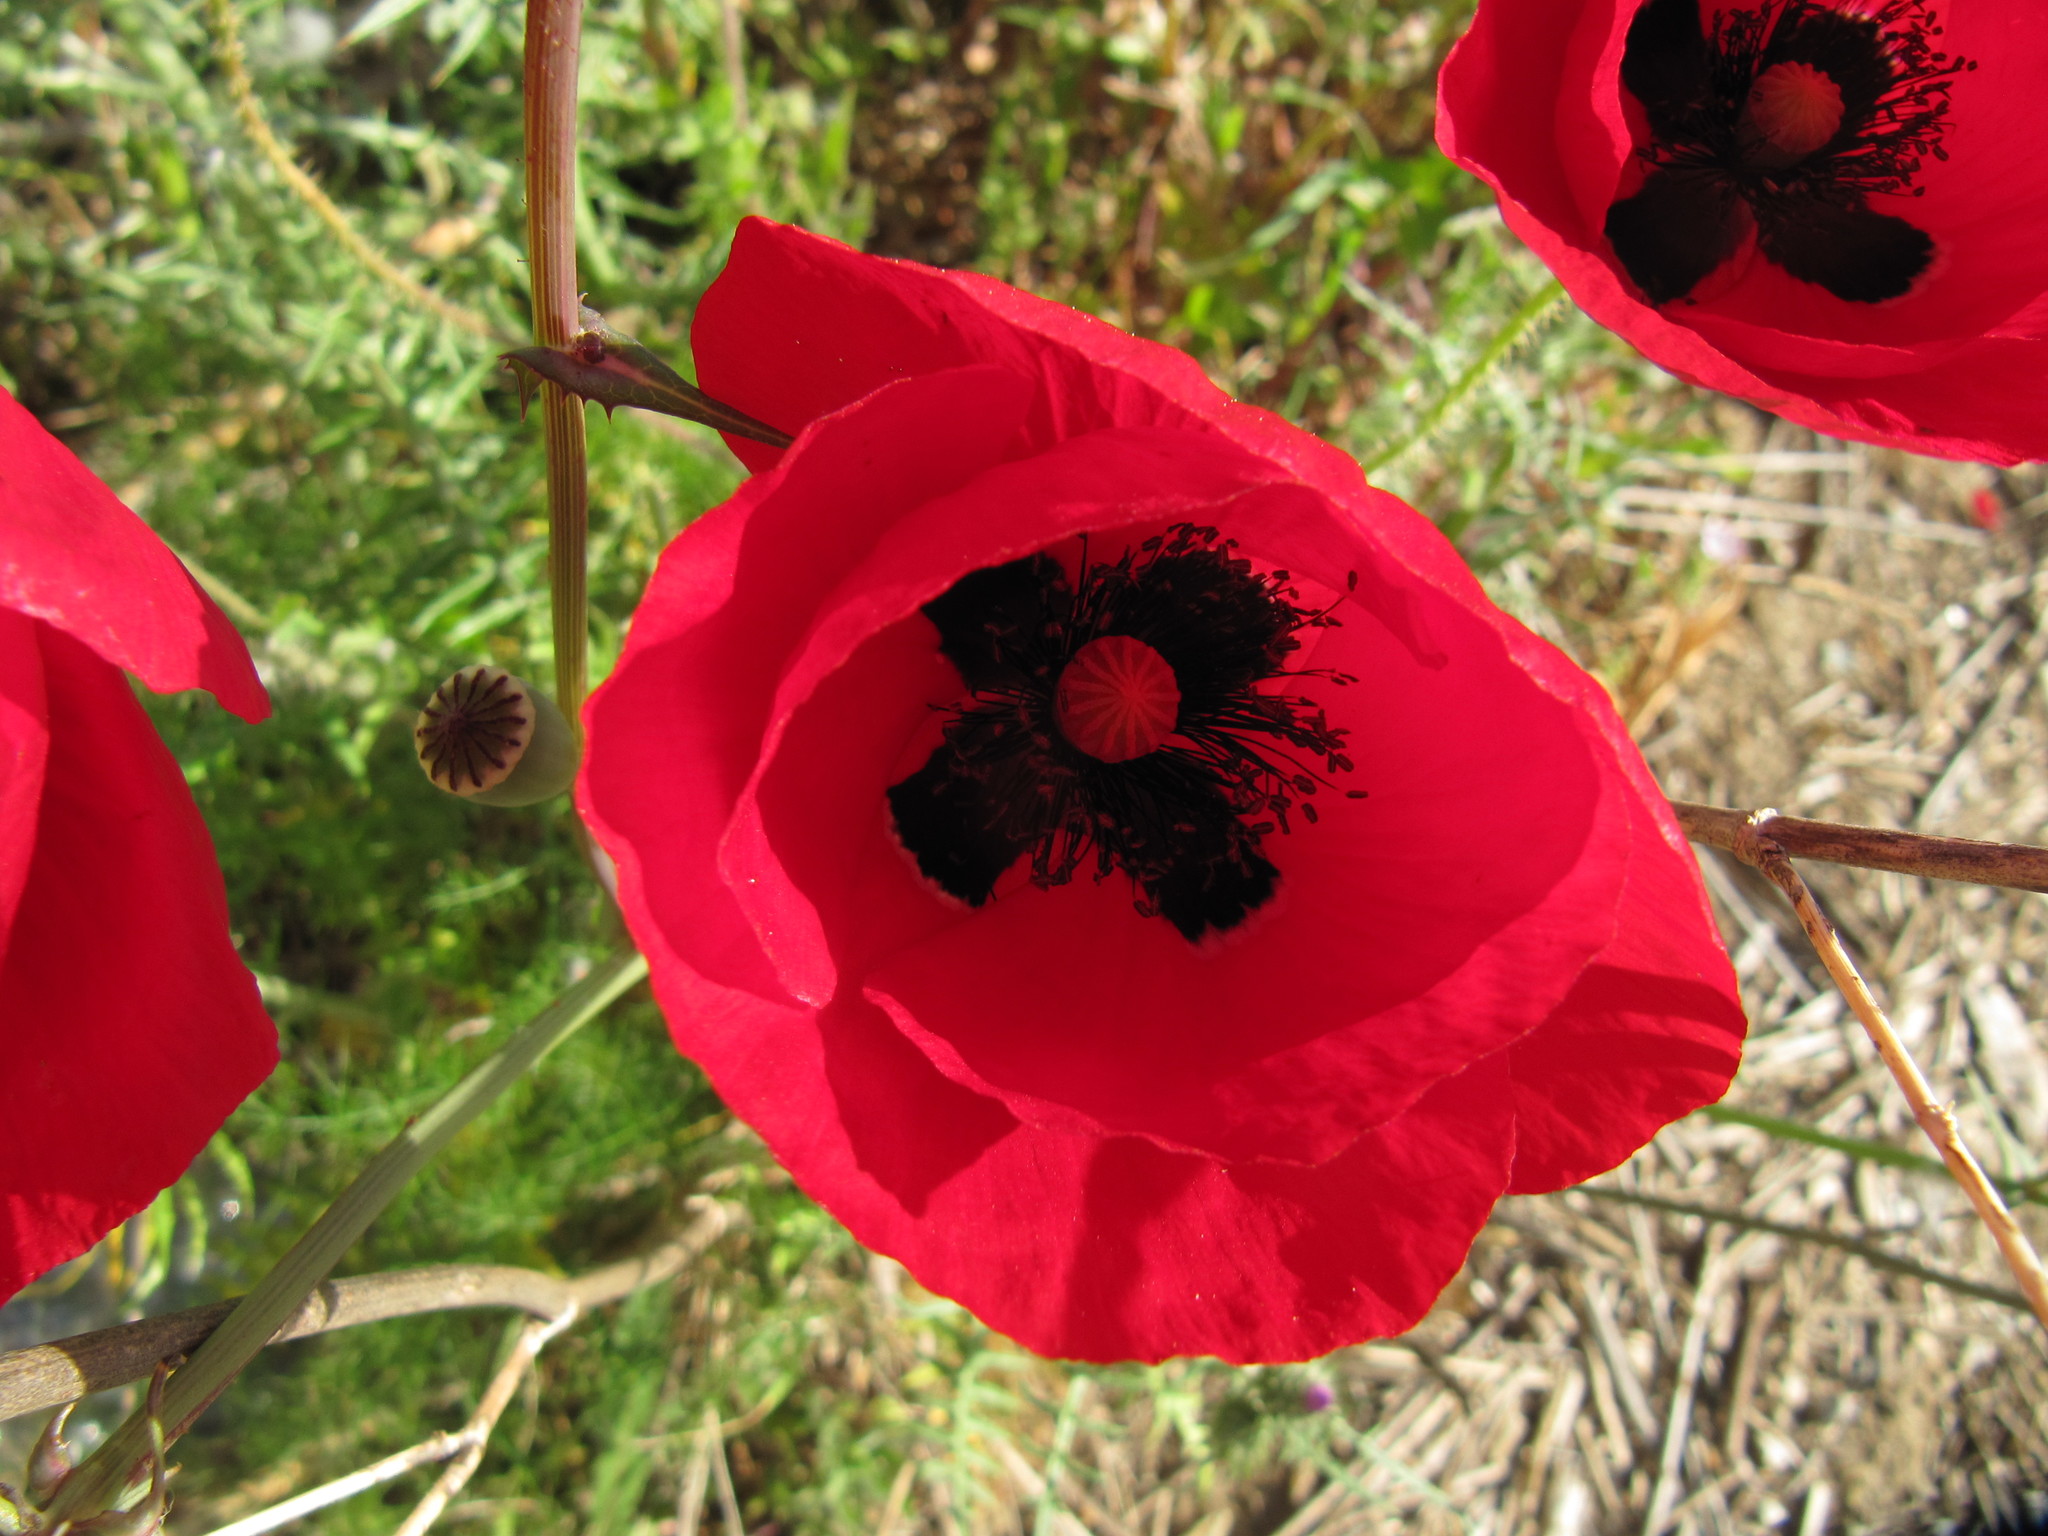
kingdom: Plantae
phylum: Tracheophyta
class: Magnoliopsida
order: Ranunculales
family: Papaveraceae
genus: Papaver
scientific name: Papaver rhoeas
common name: Corn poppy
